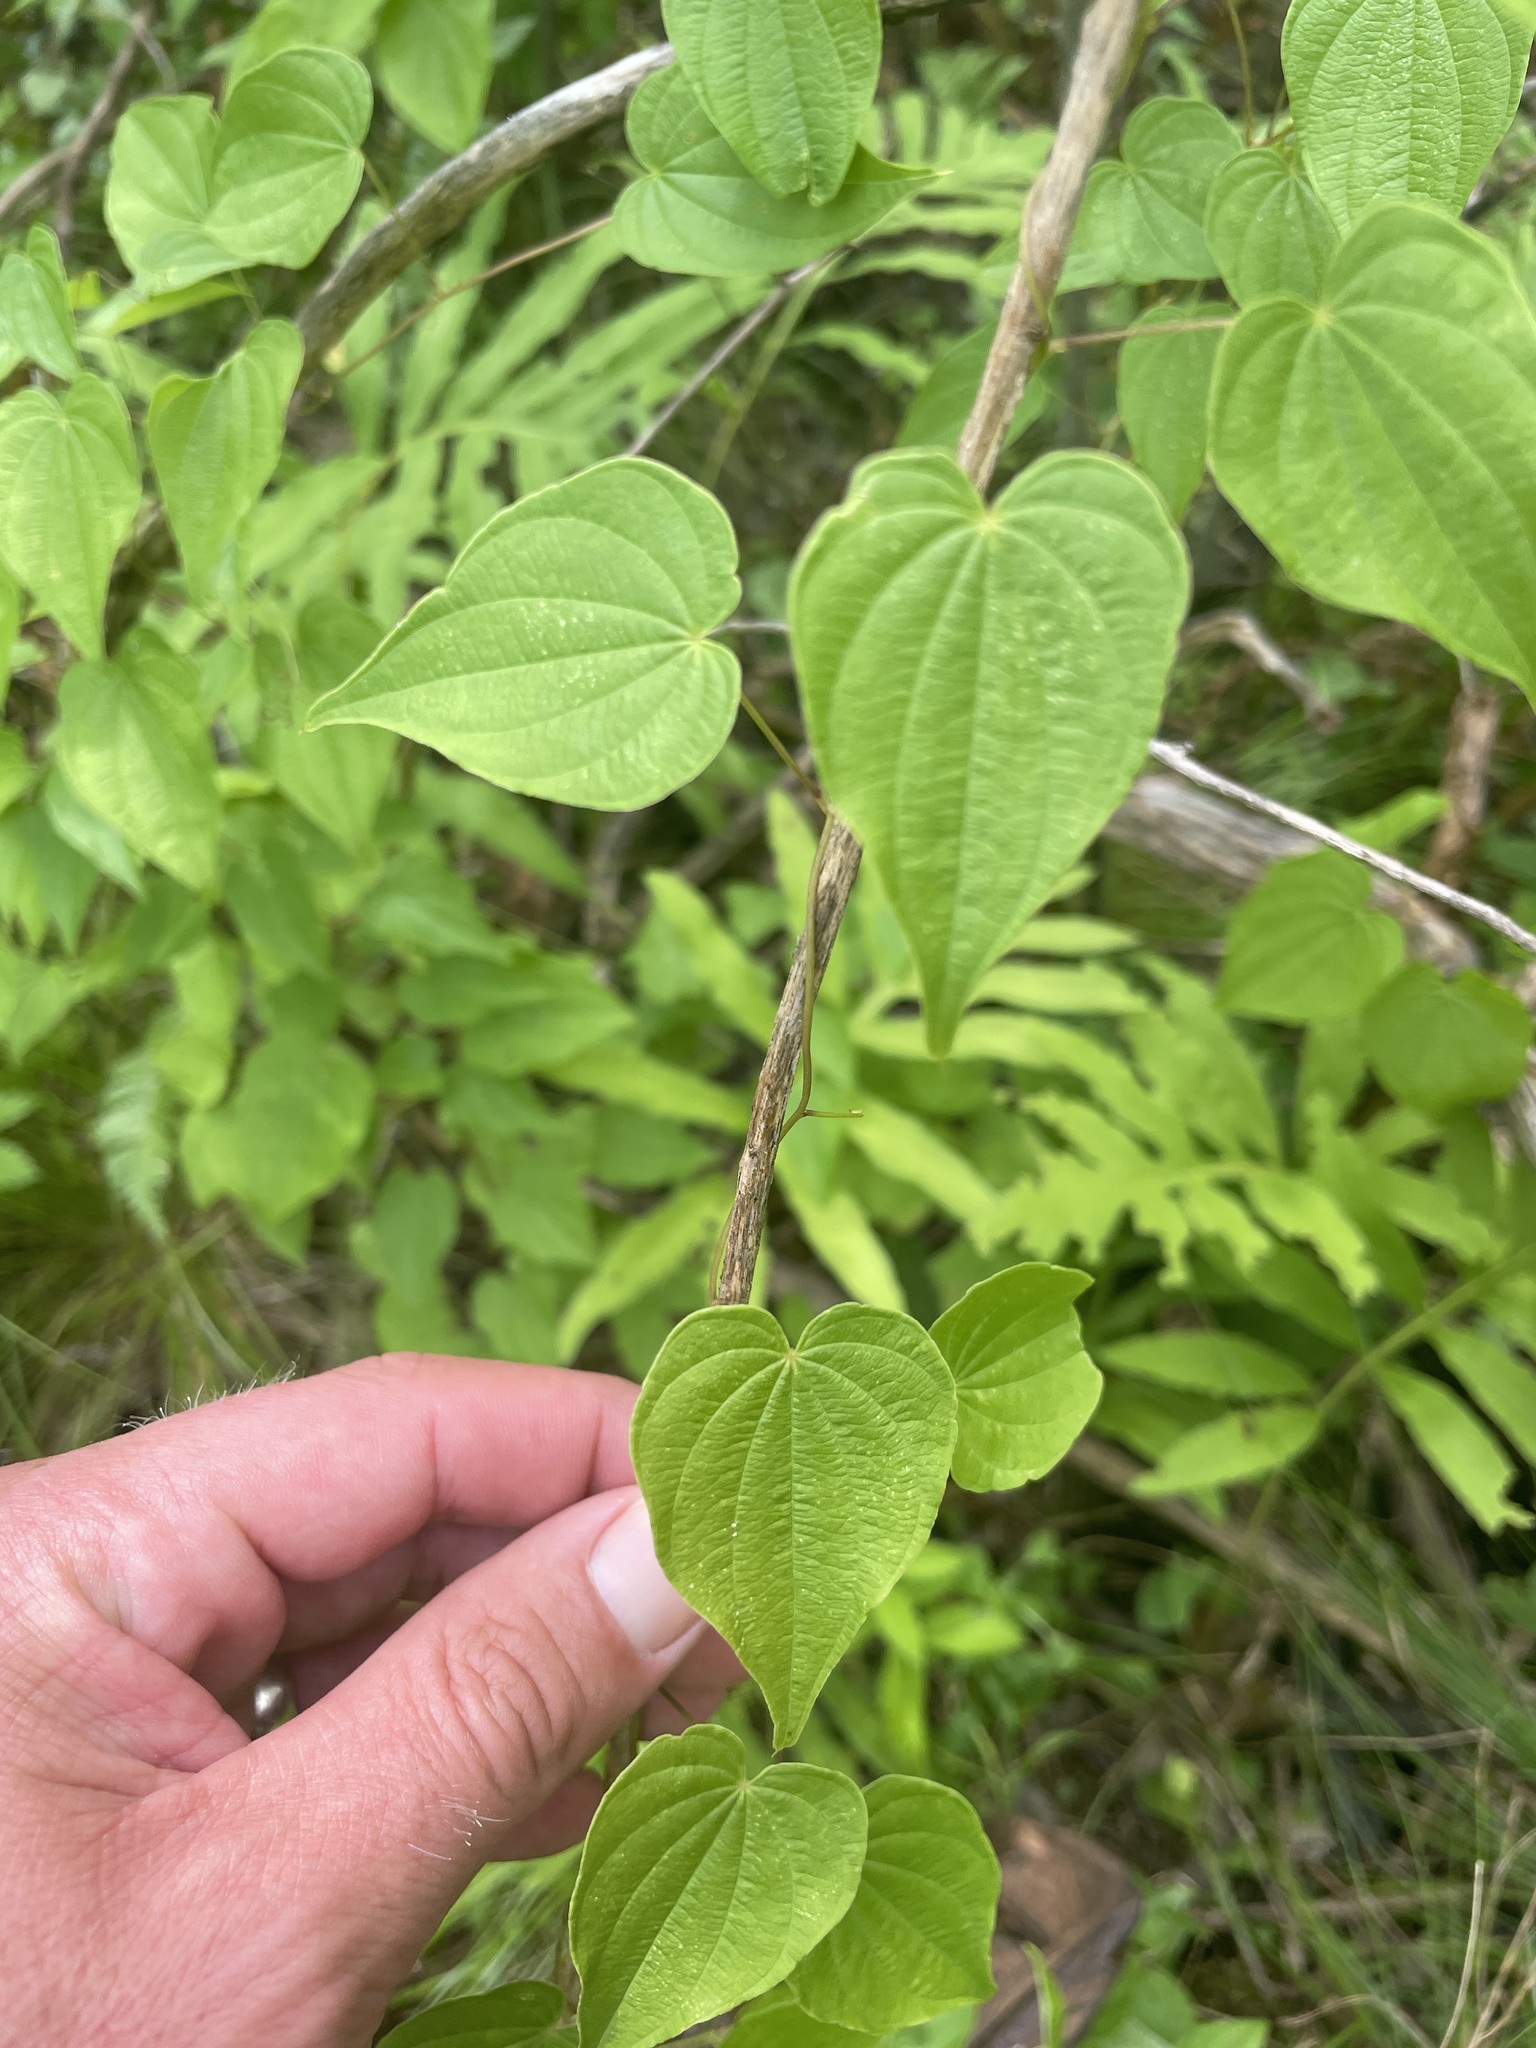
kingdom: Plantae
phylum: Tracheophyta
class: Liliopsida
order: Dioscoreales
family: Dioscoreaceae
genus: Dioscorea
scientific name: Dioscorea villosa
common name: Wild yam
